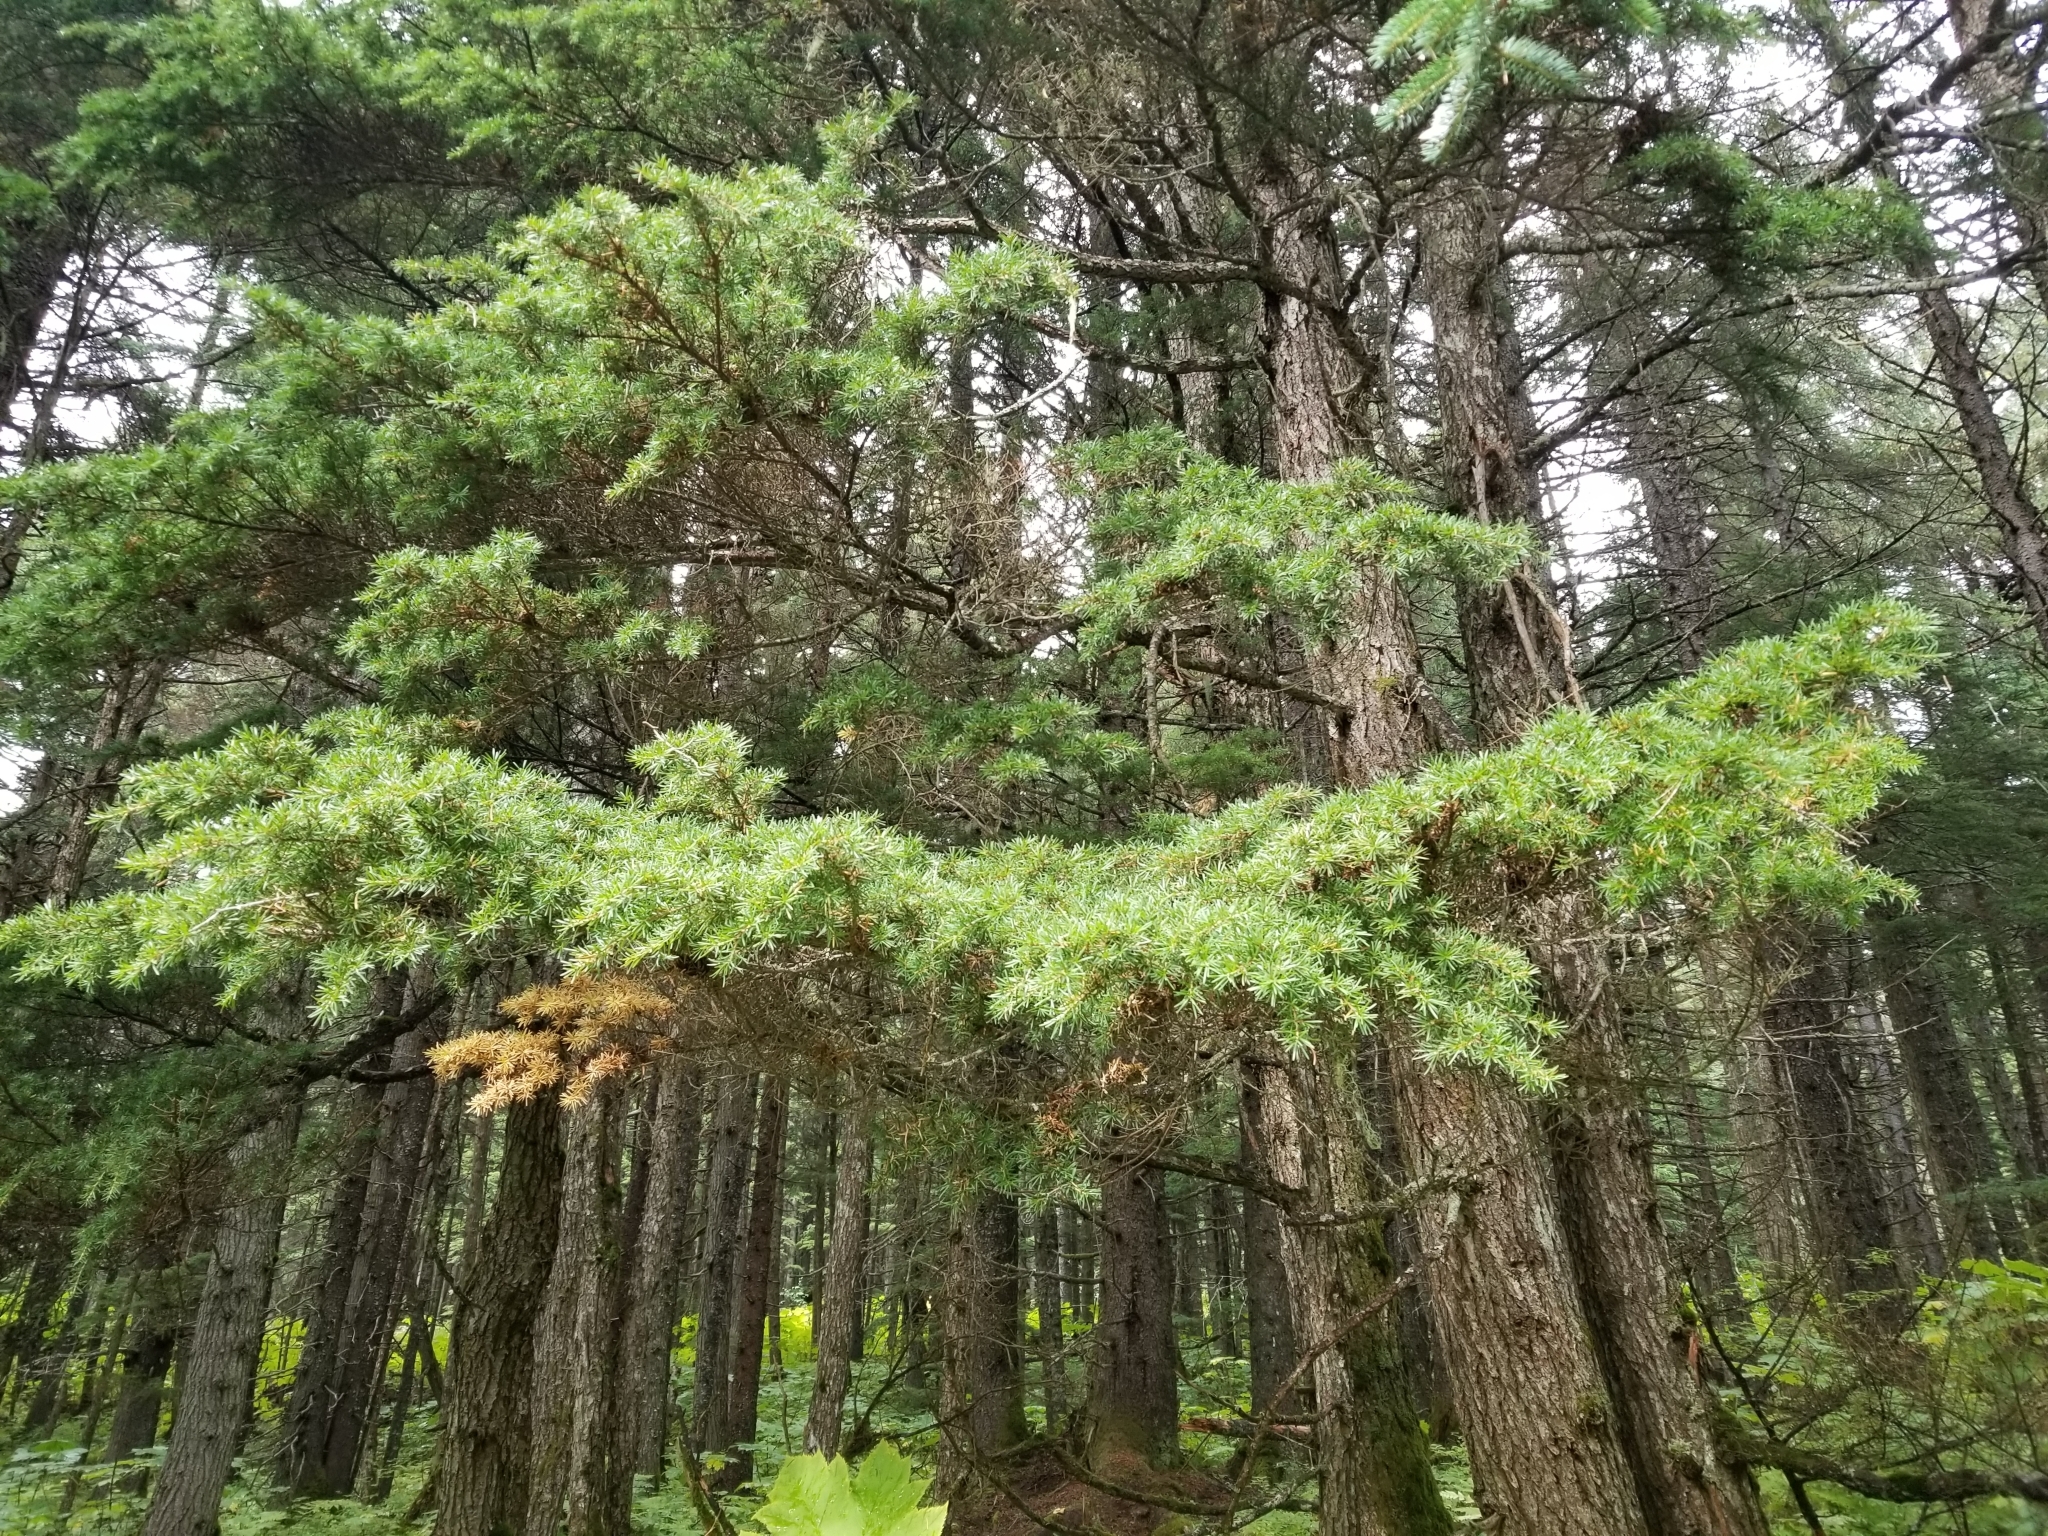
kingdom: Plantae
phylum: Tracheophyta
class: Pinopsida
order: Pinales
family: Pinaceae
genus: Tsuga
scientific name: Tsuga mertensiana
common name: Mountain hemlock
